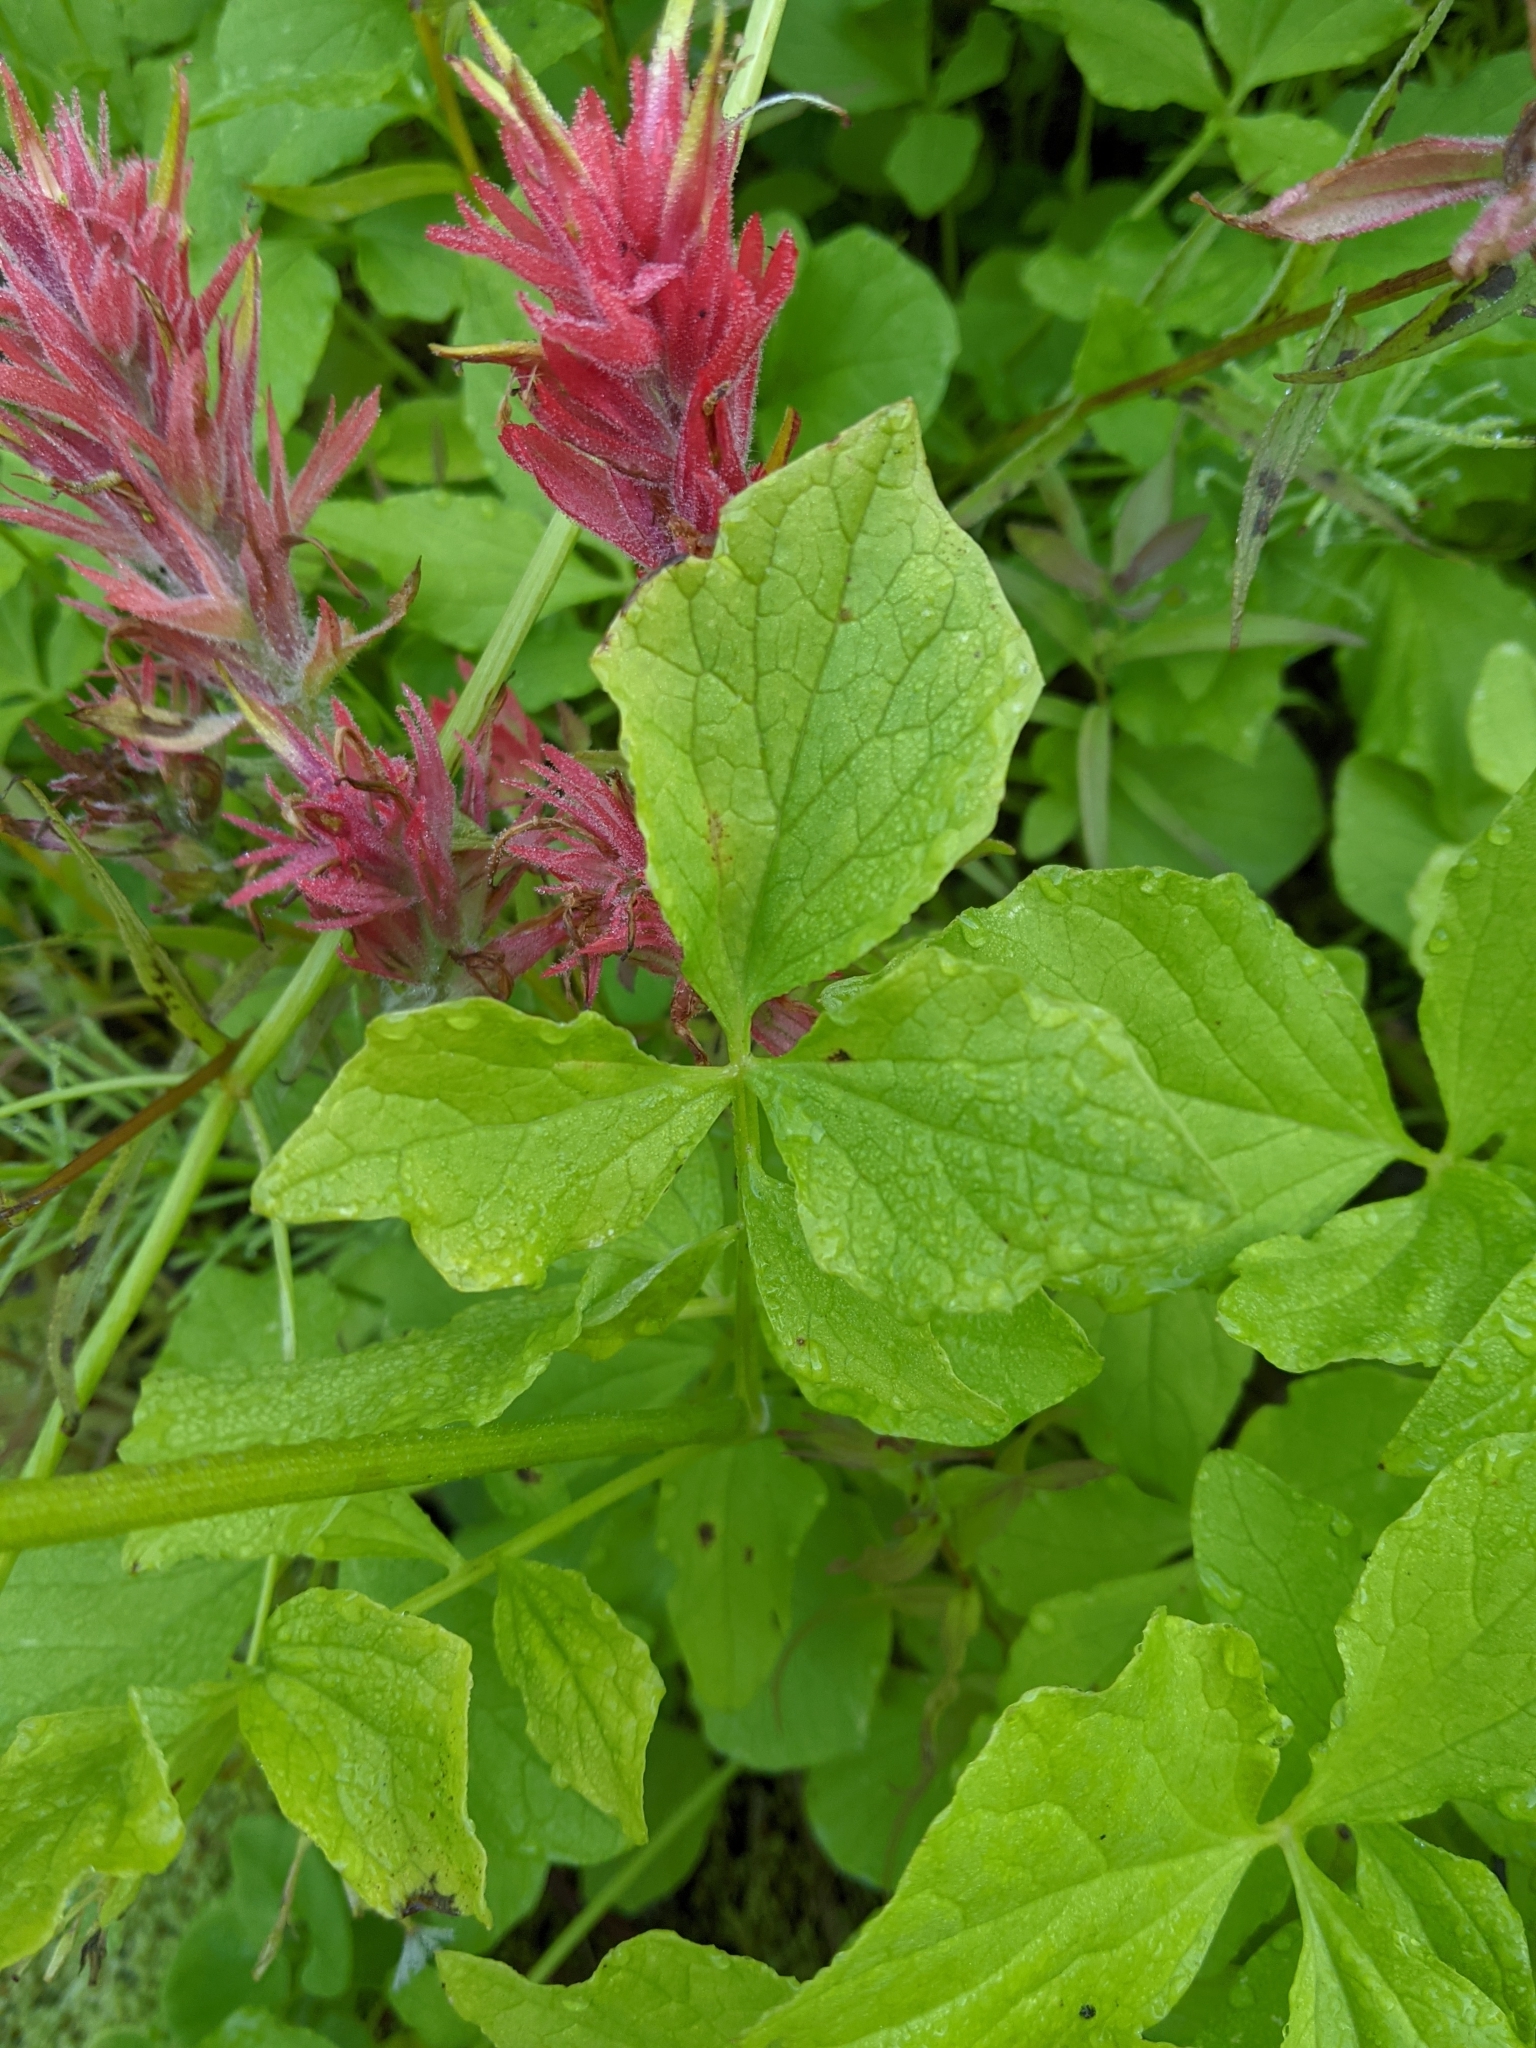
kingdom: Plantae
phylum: Tracheophyta
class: Magnoliopsida
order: Dipsacales
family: Caprifoliaceae
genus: Valeriana
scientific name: Valeriana sitchensis
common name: Pacific valerian
